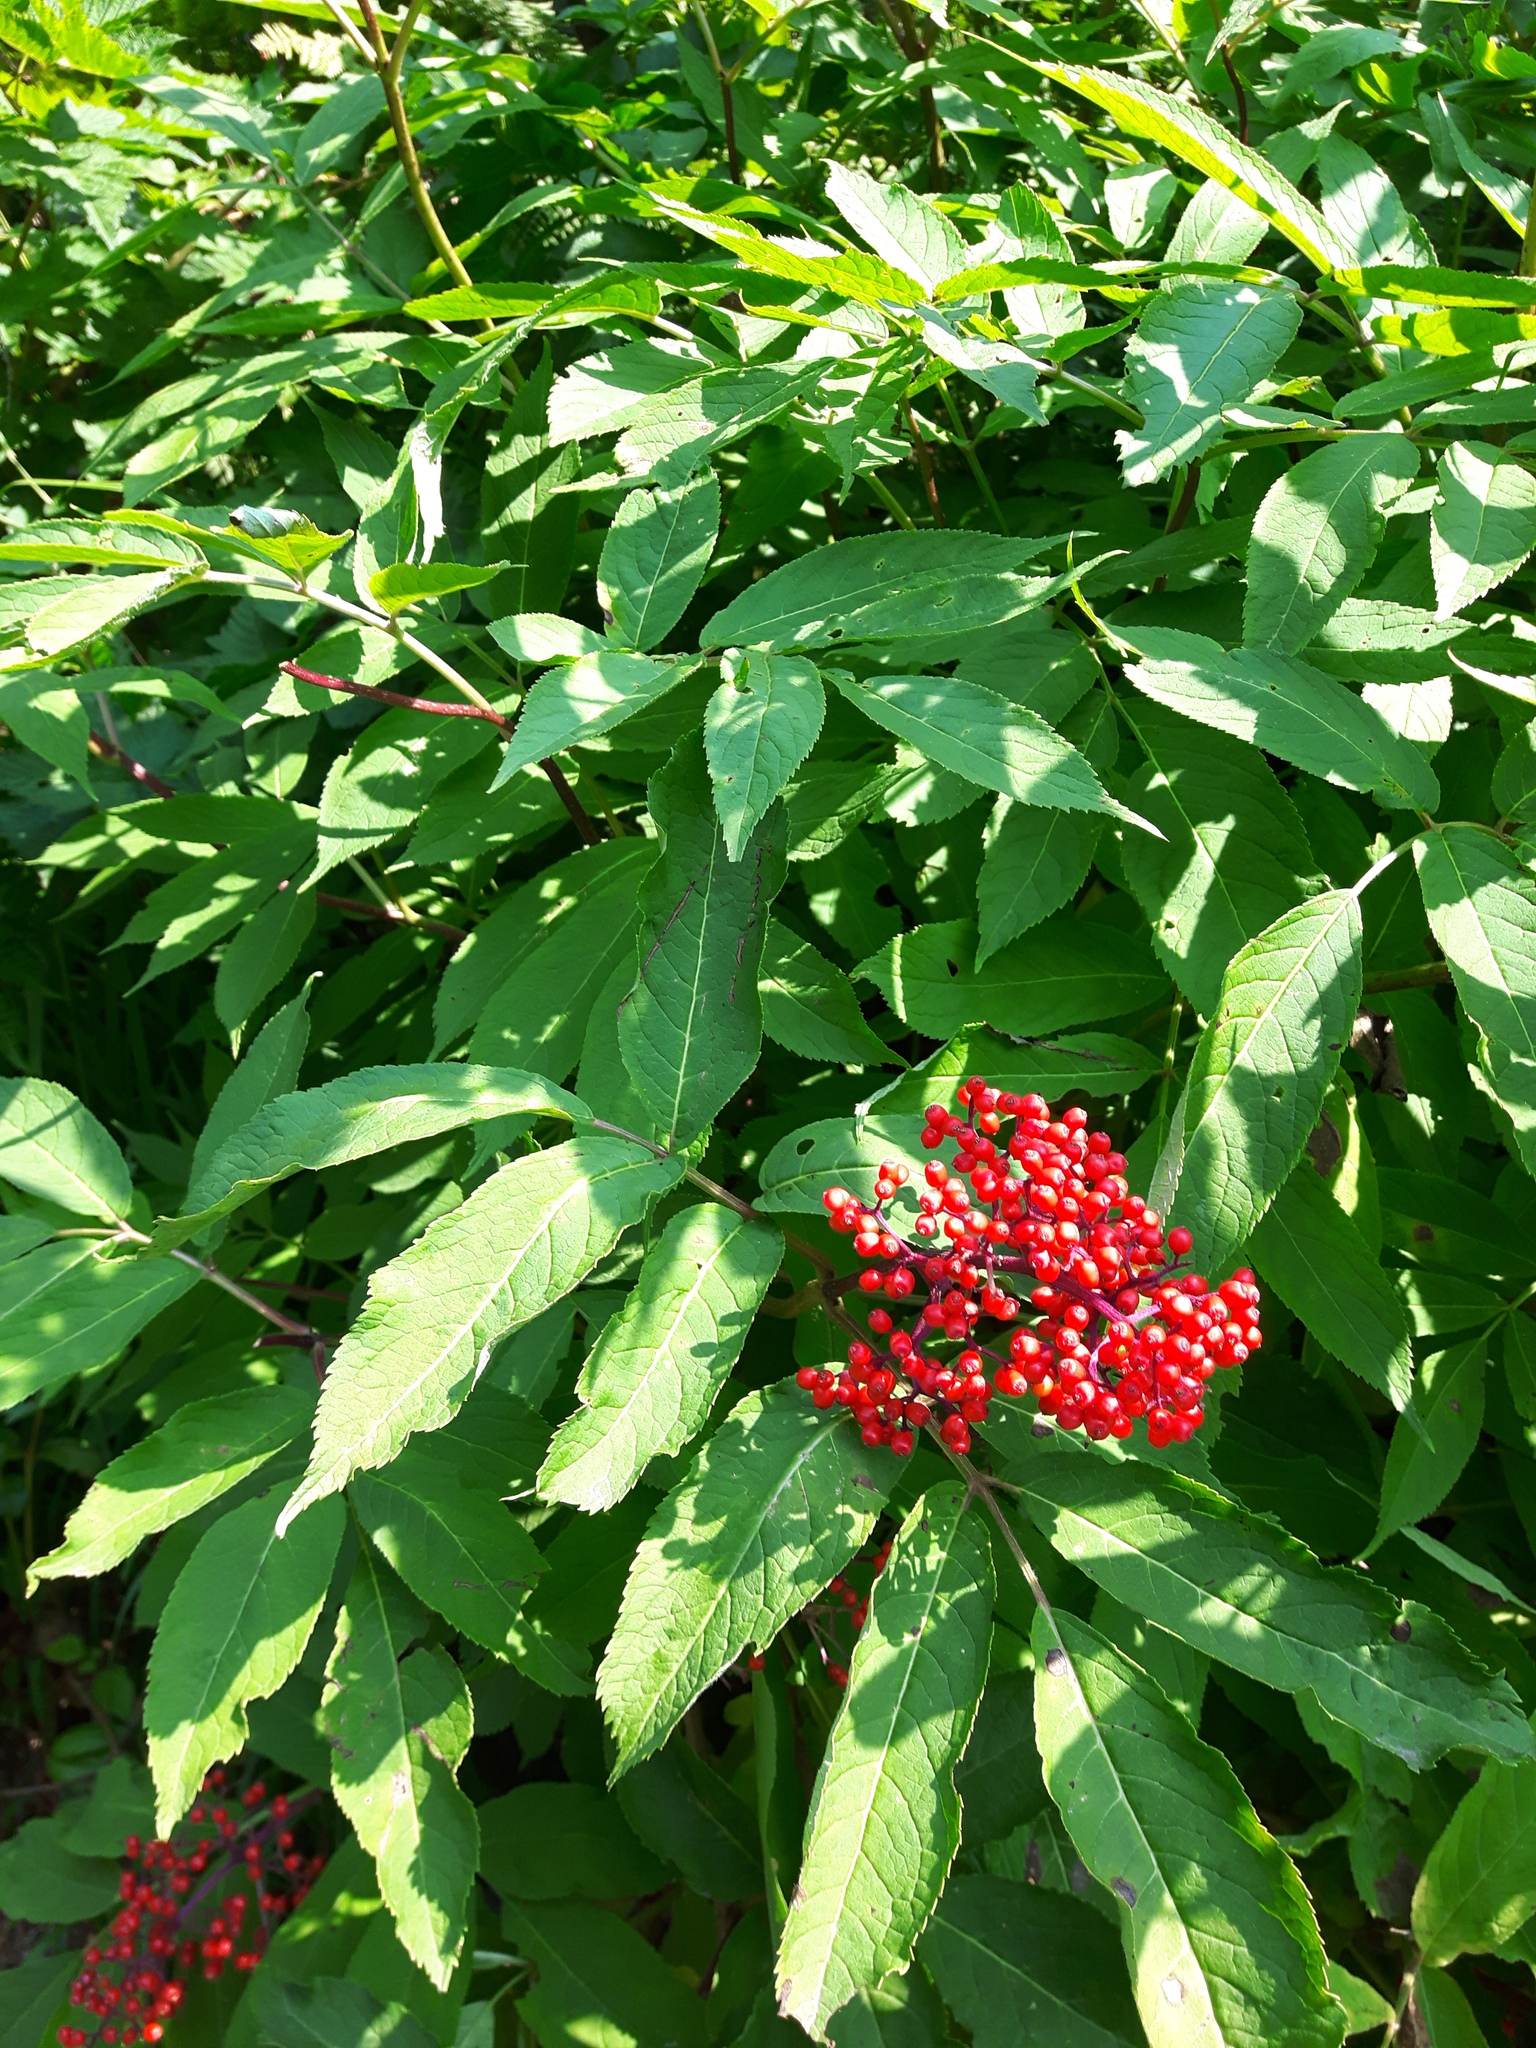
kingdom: Plantae
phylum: Tracheophyta
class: Magnoliopsida
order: Dipsacales
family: Viburnaceae
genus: Sambucus
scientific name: Sambucus racemosa
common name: Red-berried elder
